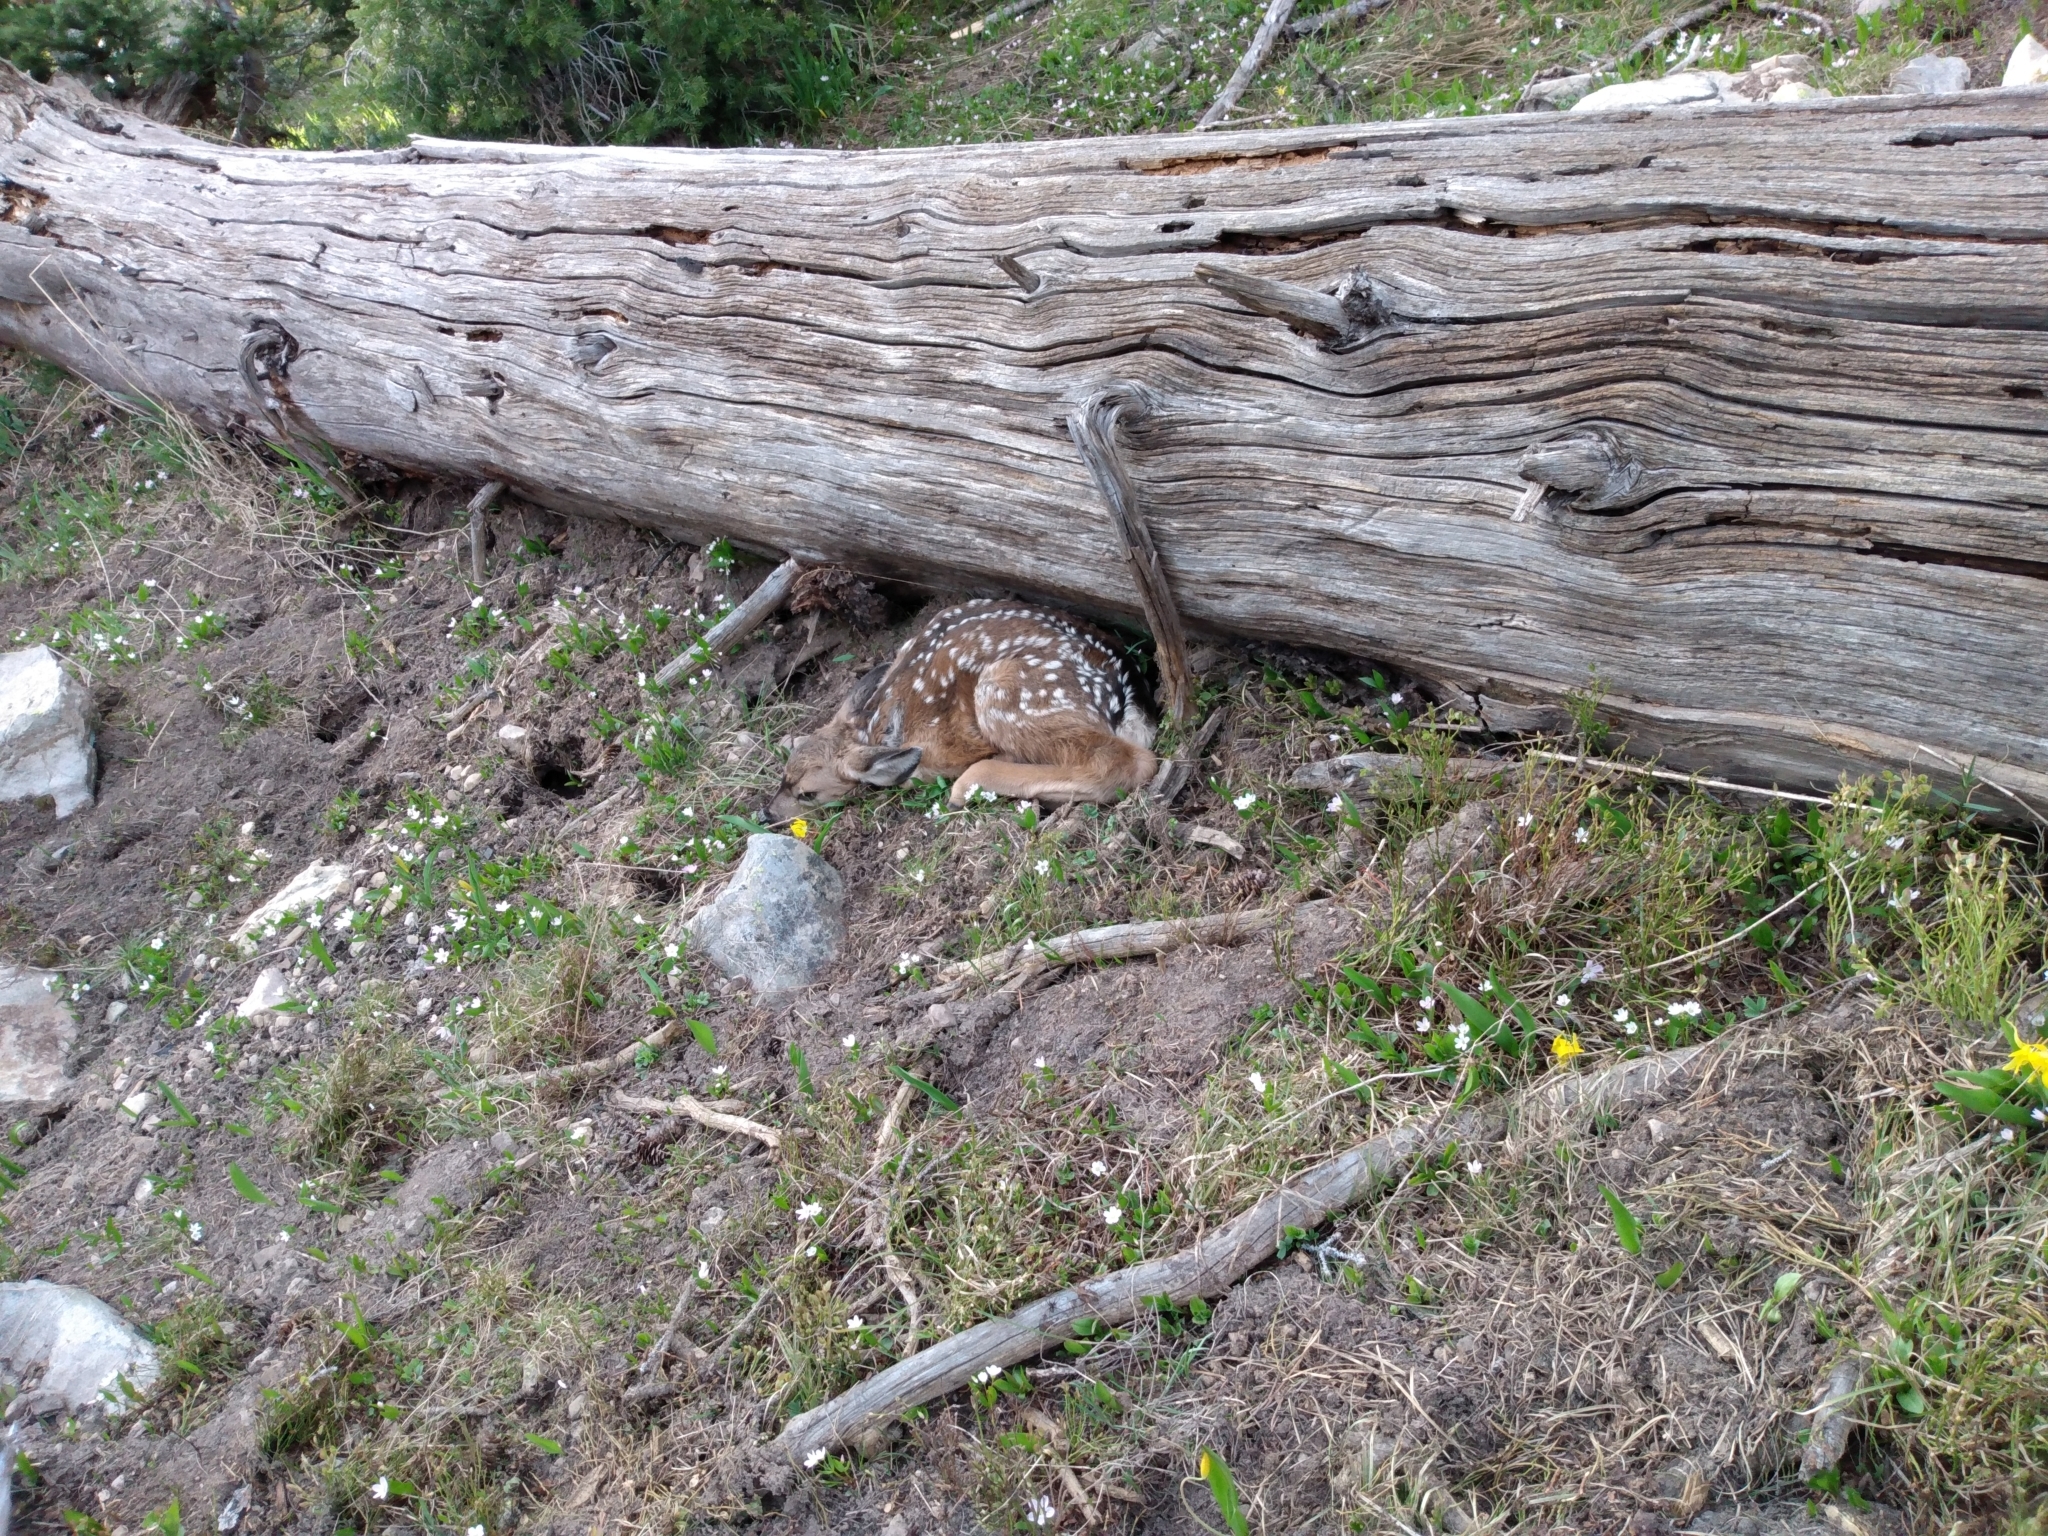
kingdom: Animalia
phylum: Chordata
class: Mammalia
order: Artiodactyla
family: Cervidae
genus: Odocoileus
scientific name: Odocoileus hemionus
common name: Mule deer
